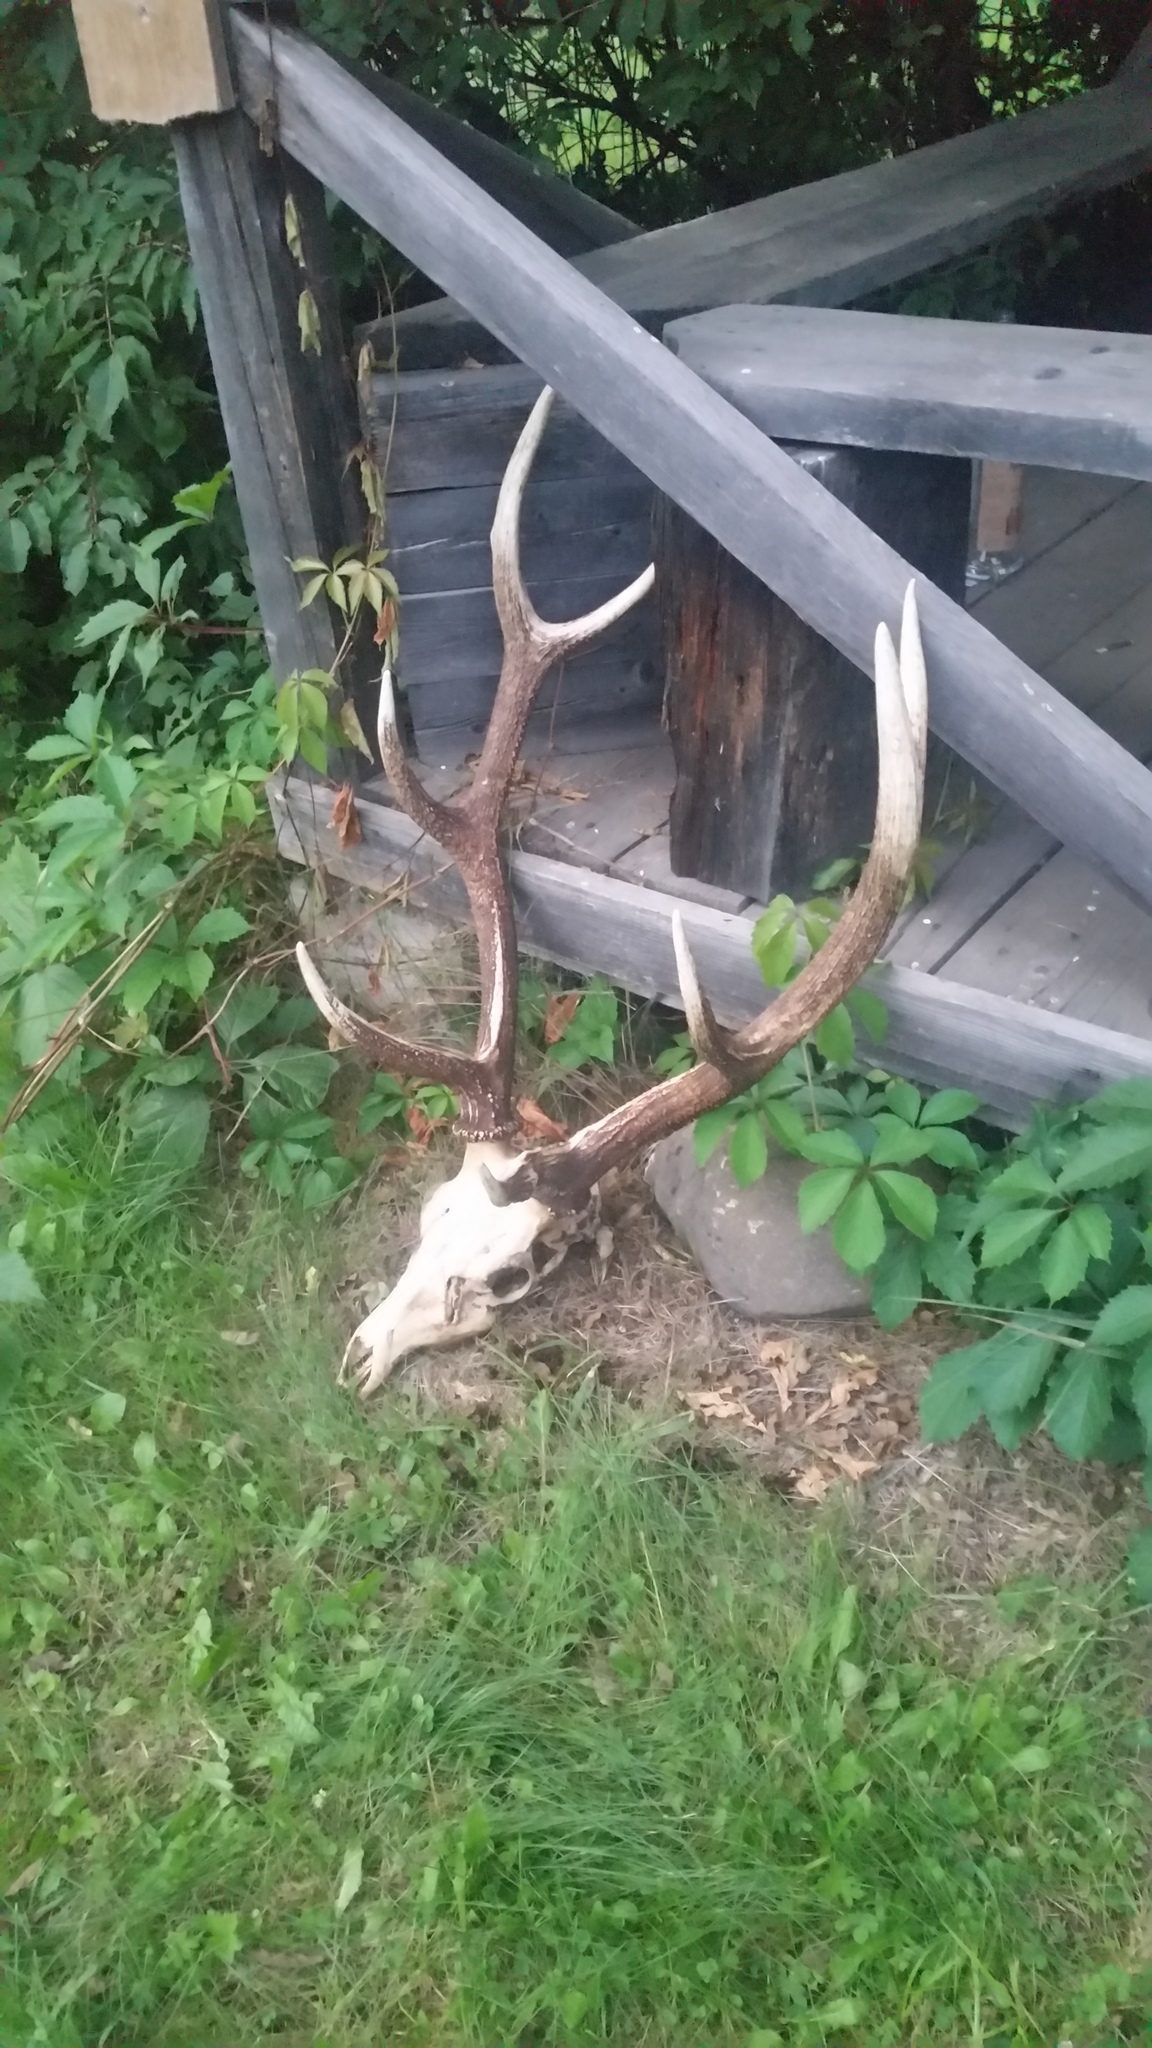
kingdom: Animalia
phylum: Chordata
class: Mammalia
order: Artiodactyla
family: Cervidae
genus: Cervus
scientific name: Cervus elaphus
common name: Red deer
